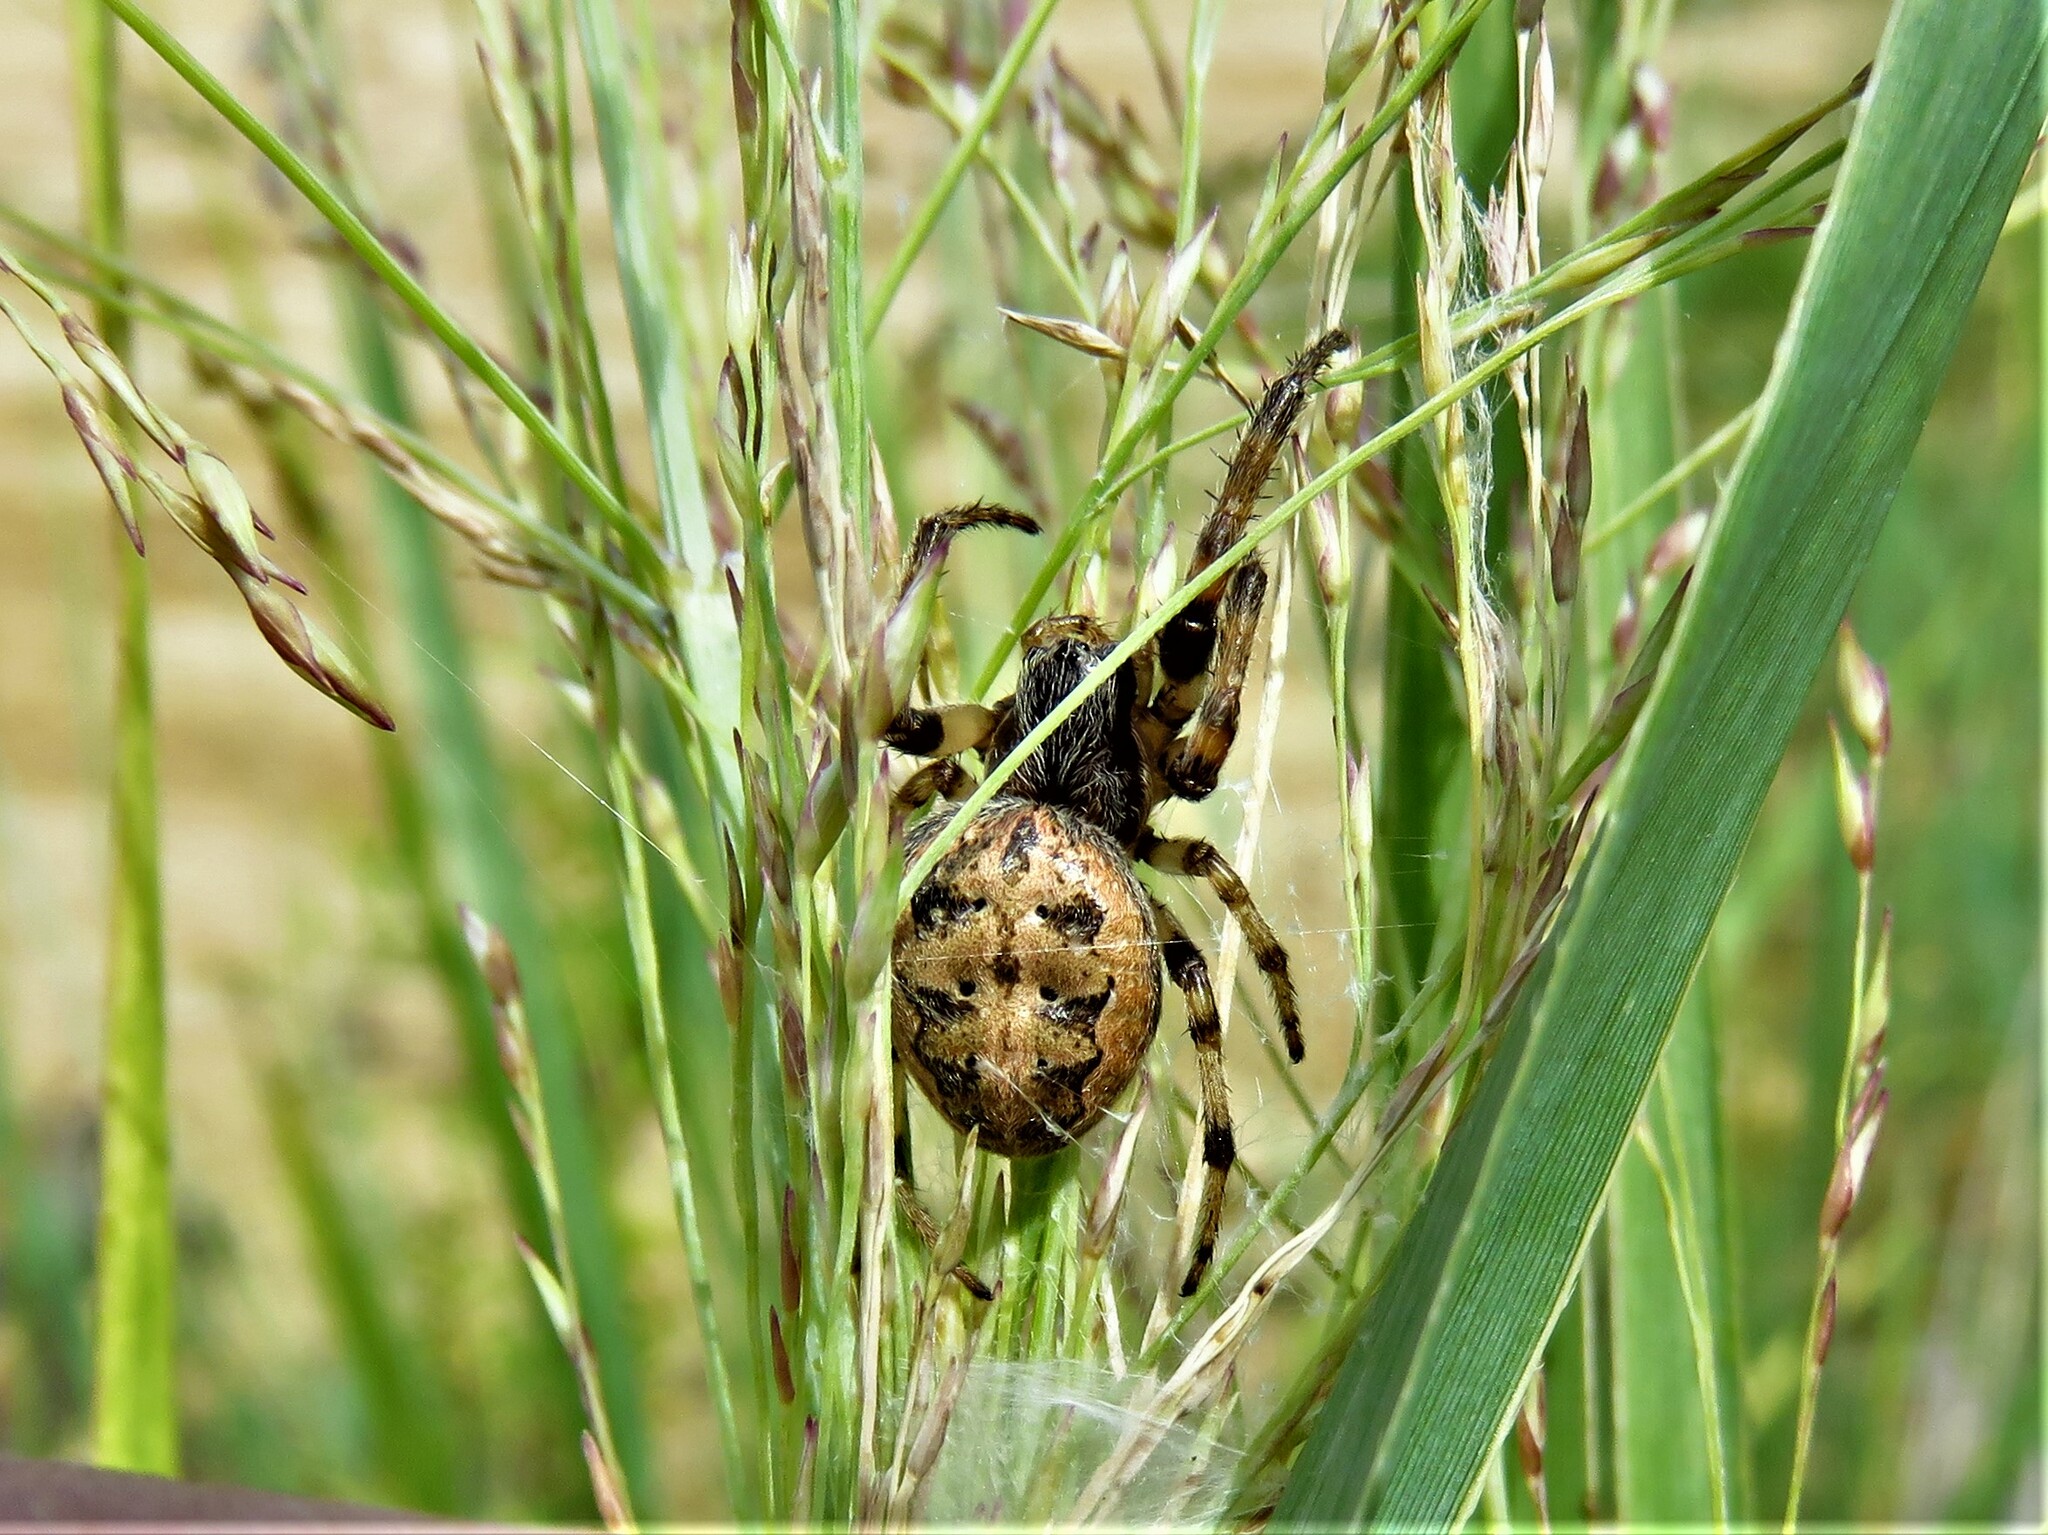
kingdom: Animalia
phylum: Arthropoda
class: Arachnida
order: Araneae
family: Araneidae
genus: Larinioides
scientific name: Larinioides cornutus
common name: Furrow orbweaver
